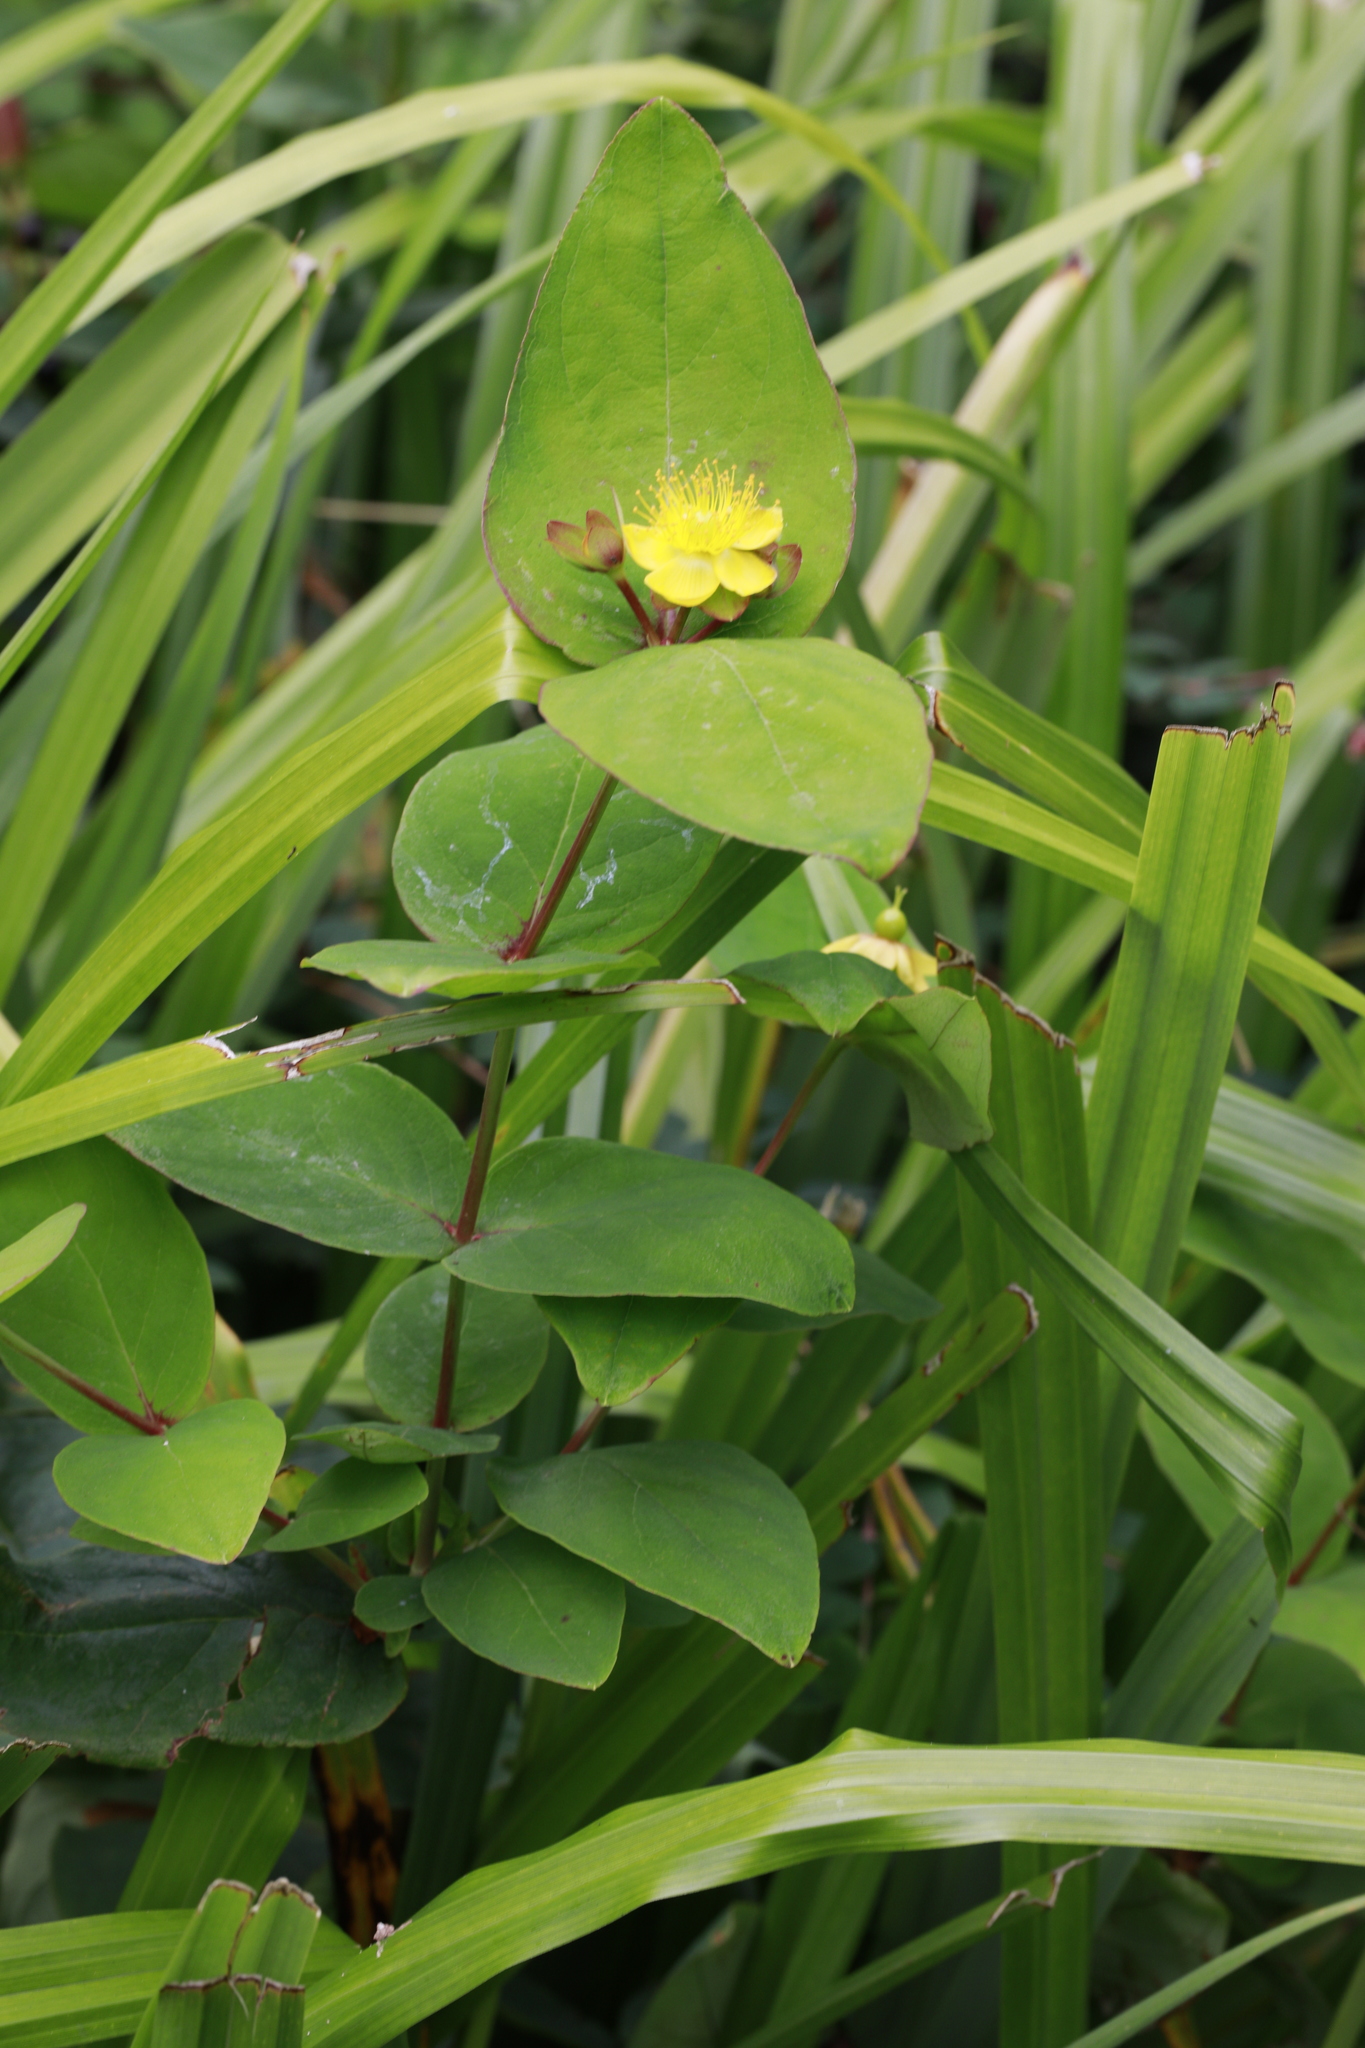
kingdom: Plantae
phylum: Tracheophyta
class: Magnoliopsida
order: Malpighiales
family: Hypericaceae
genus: Hypericum
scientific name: Hypericum androsaemum
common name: Sweet-amber
